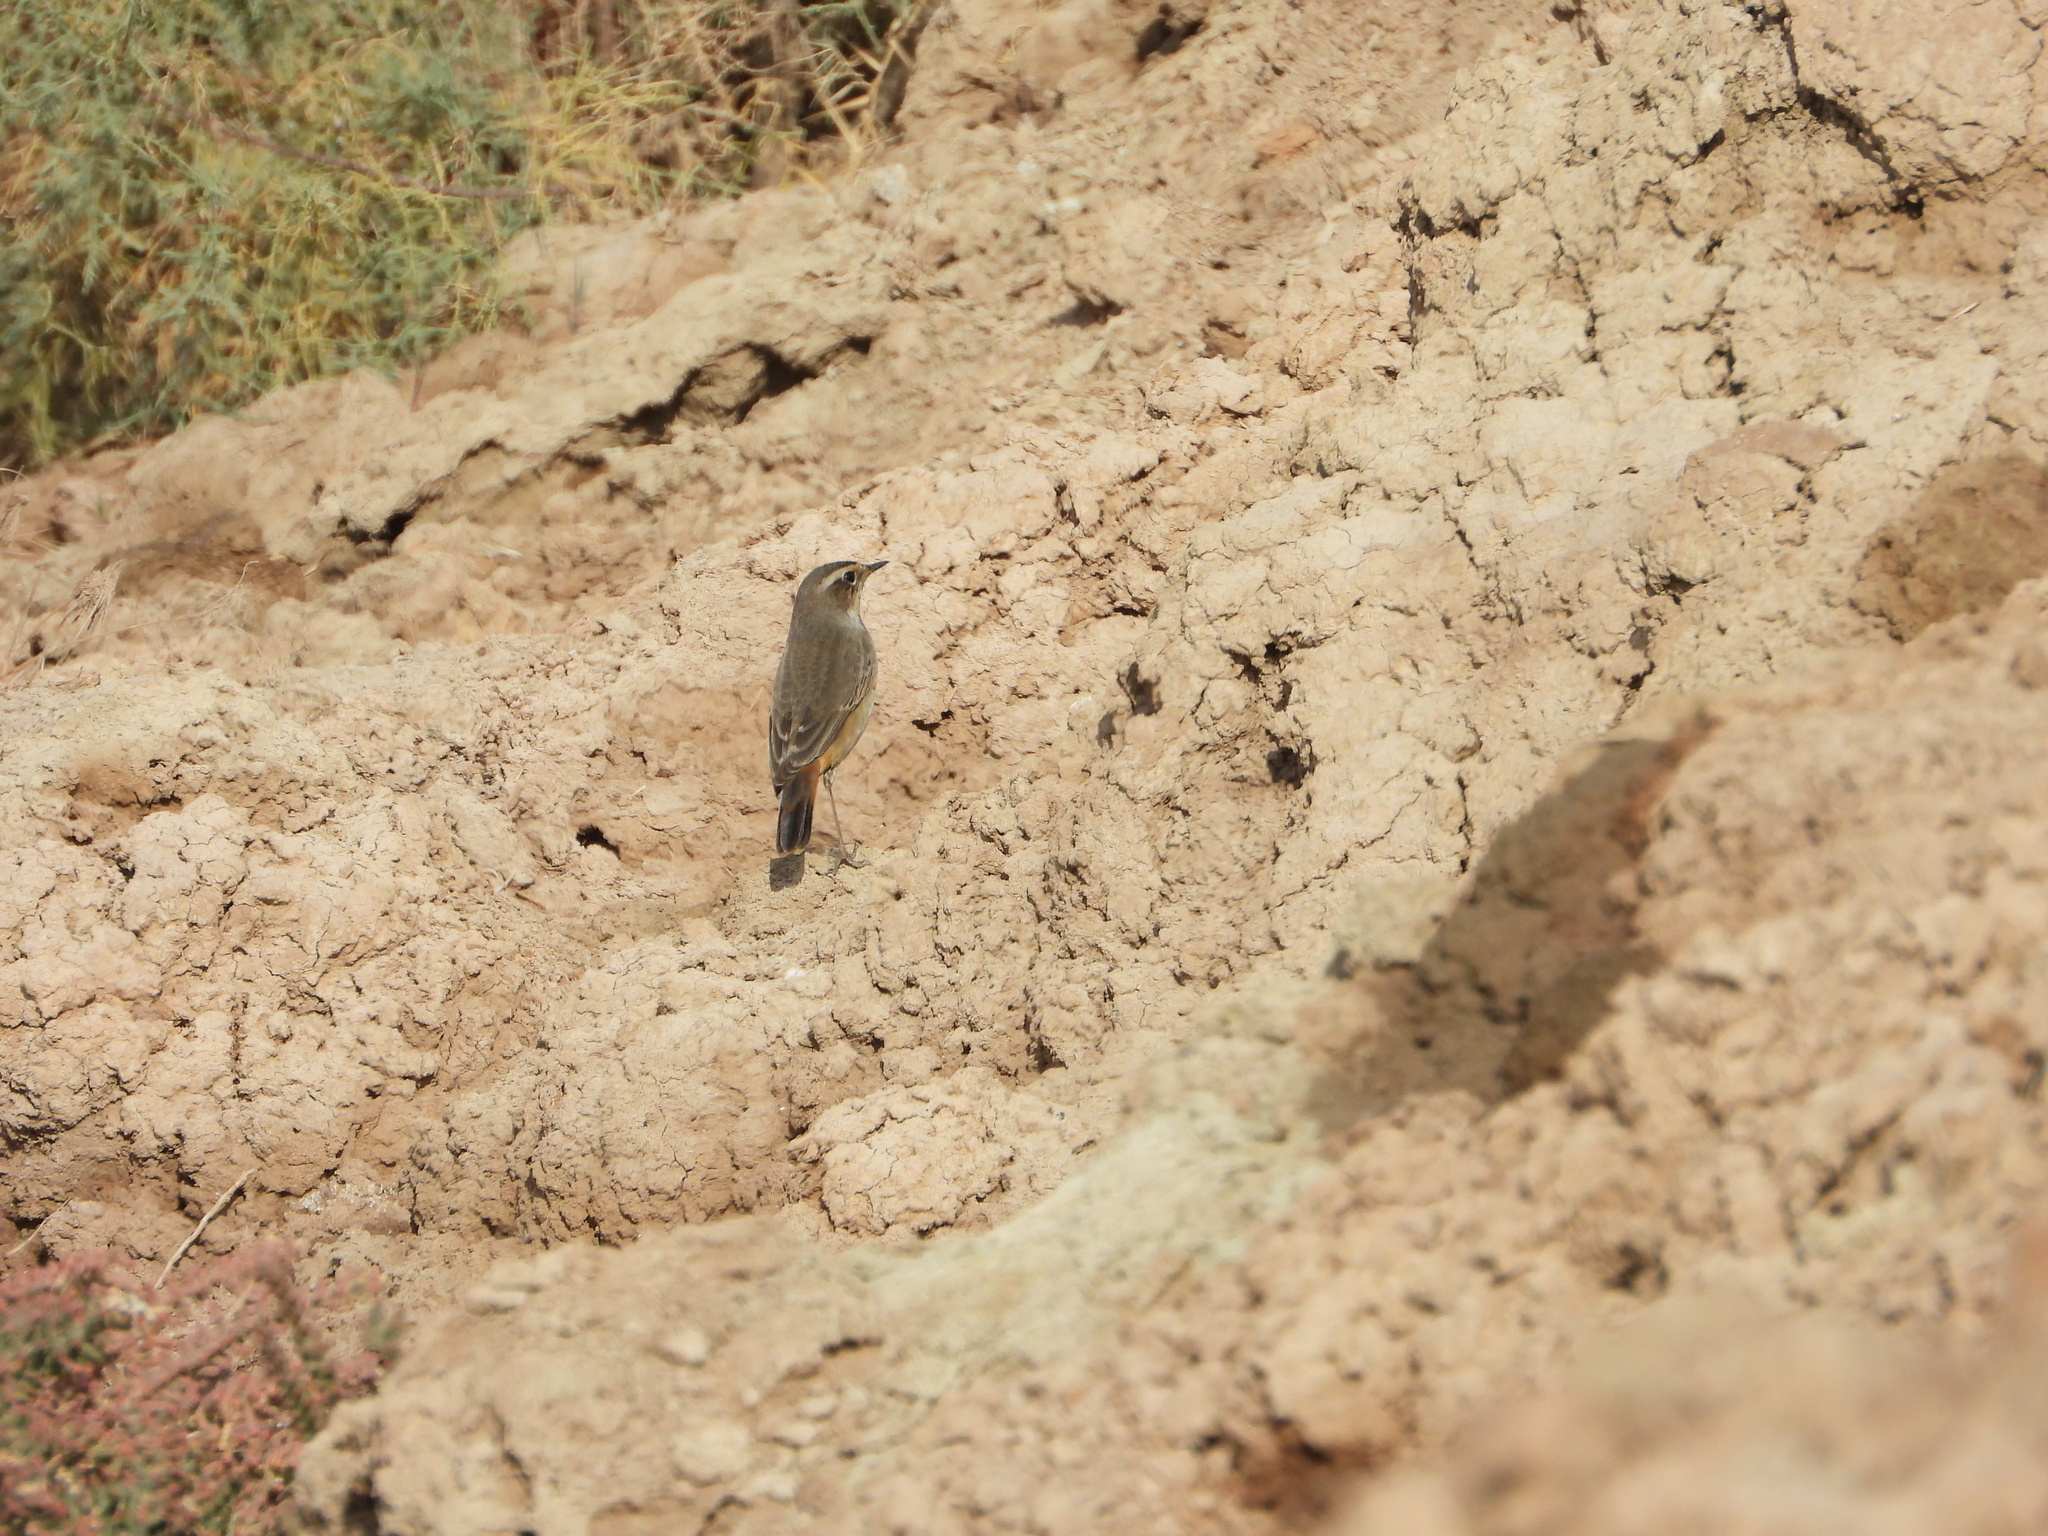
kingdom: Animalia
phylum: Chordata
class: Aves
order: Passeriformes
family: Muscicapidae
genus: Luscinia
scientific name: Luscinia svecica
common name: Bluethroat
